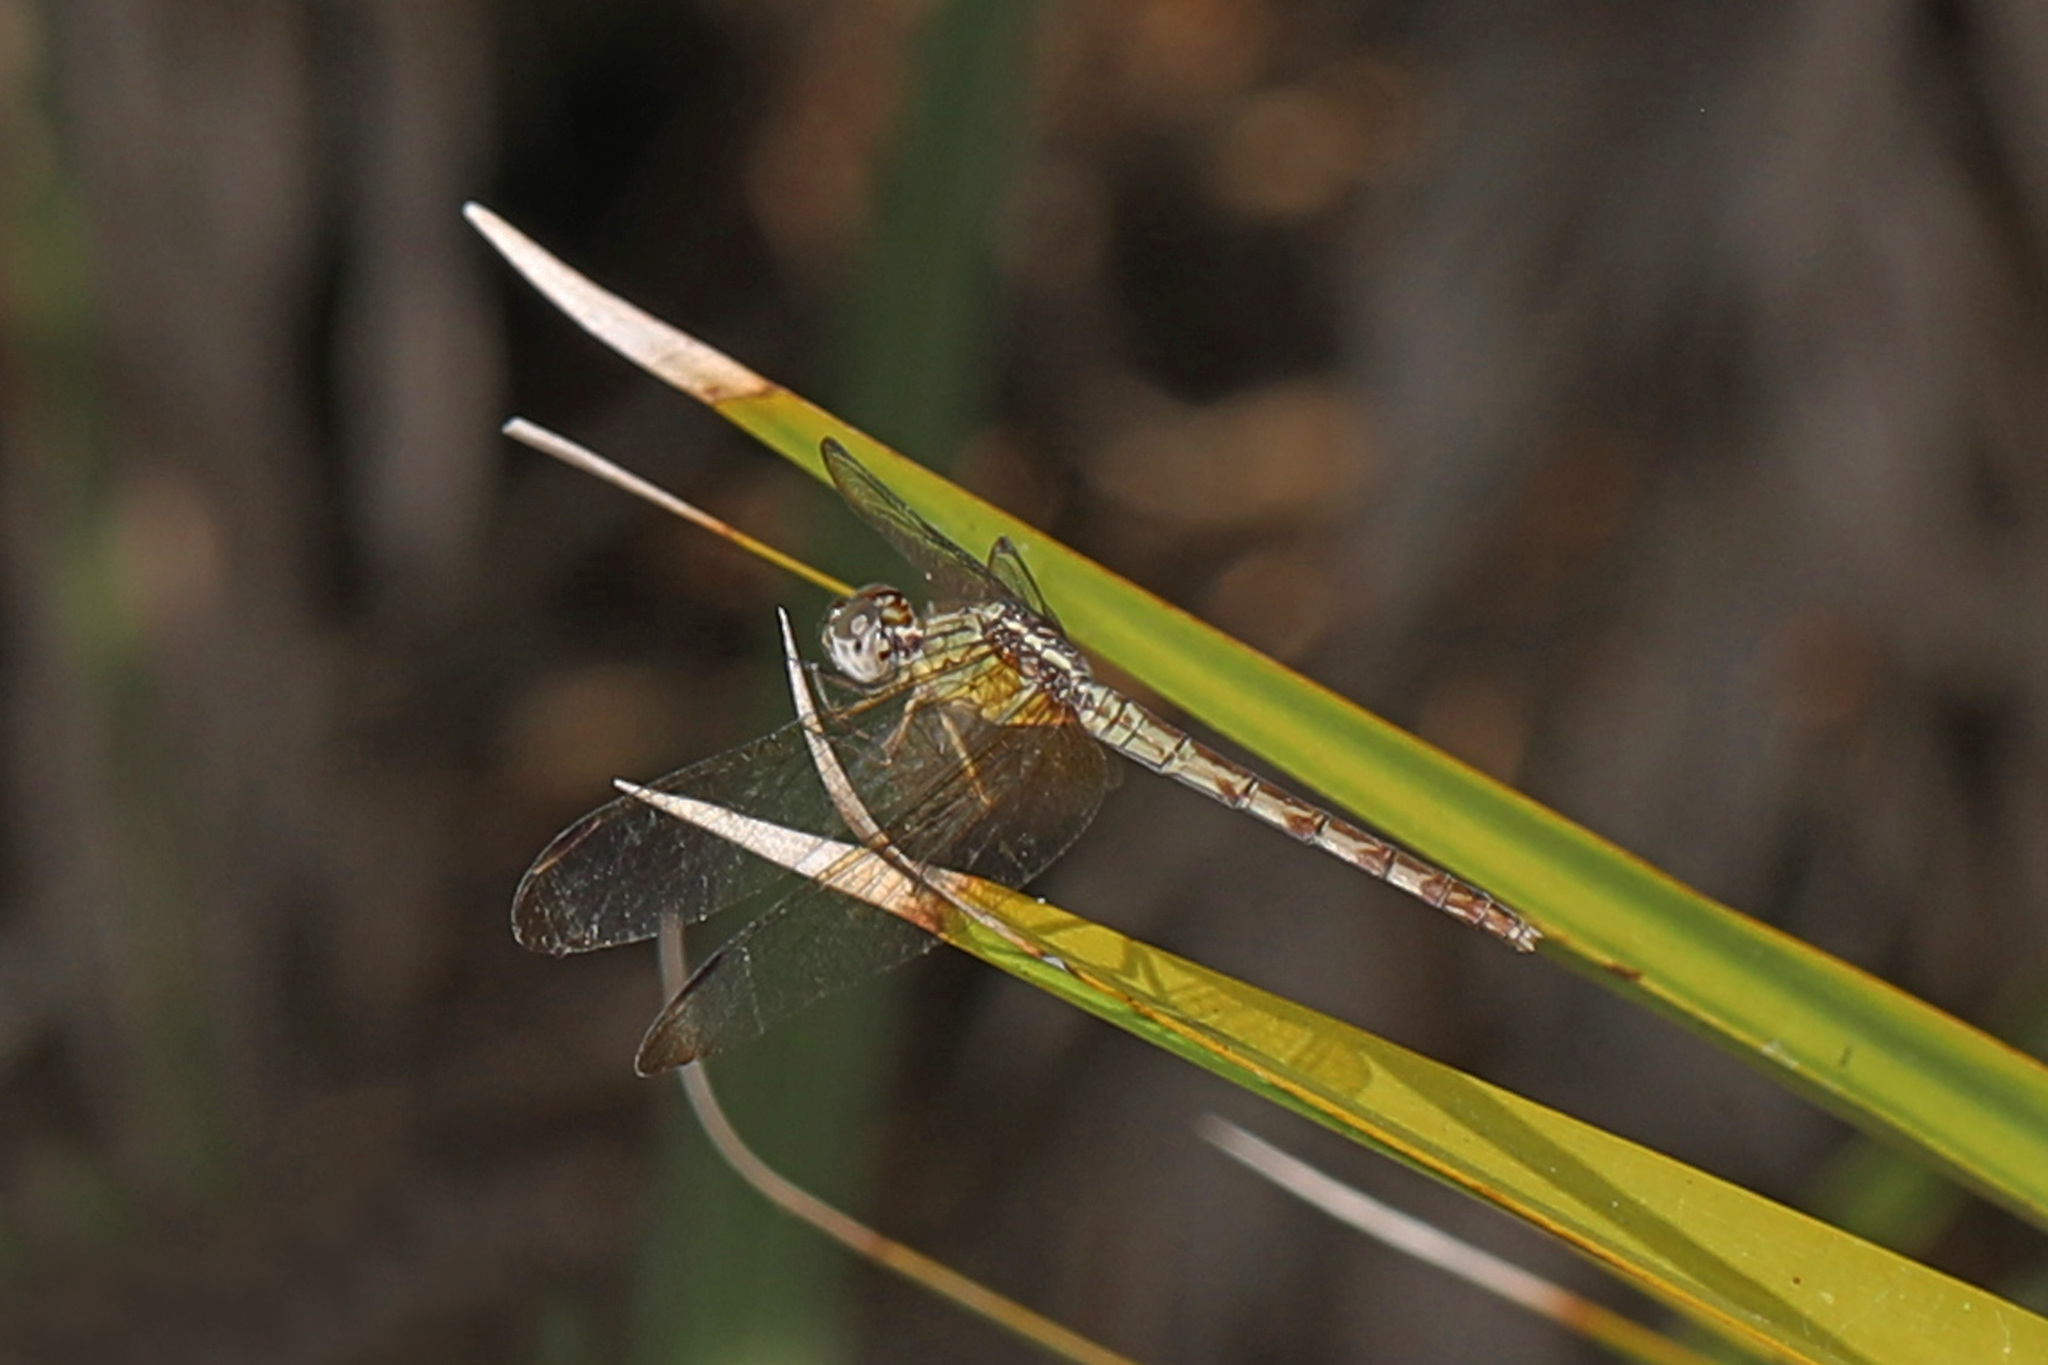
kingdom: Animalia
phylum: Arthropoda
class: Insecta
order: Odonata
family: Libellulidae
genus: Erythrodiplax
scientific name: Erythrodiplax umbrata
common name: Band-winged dragonlet
